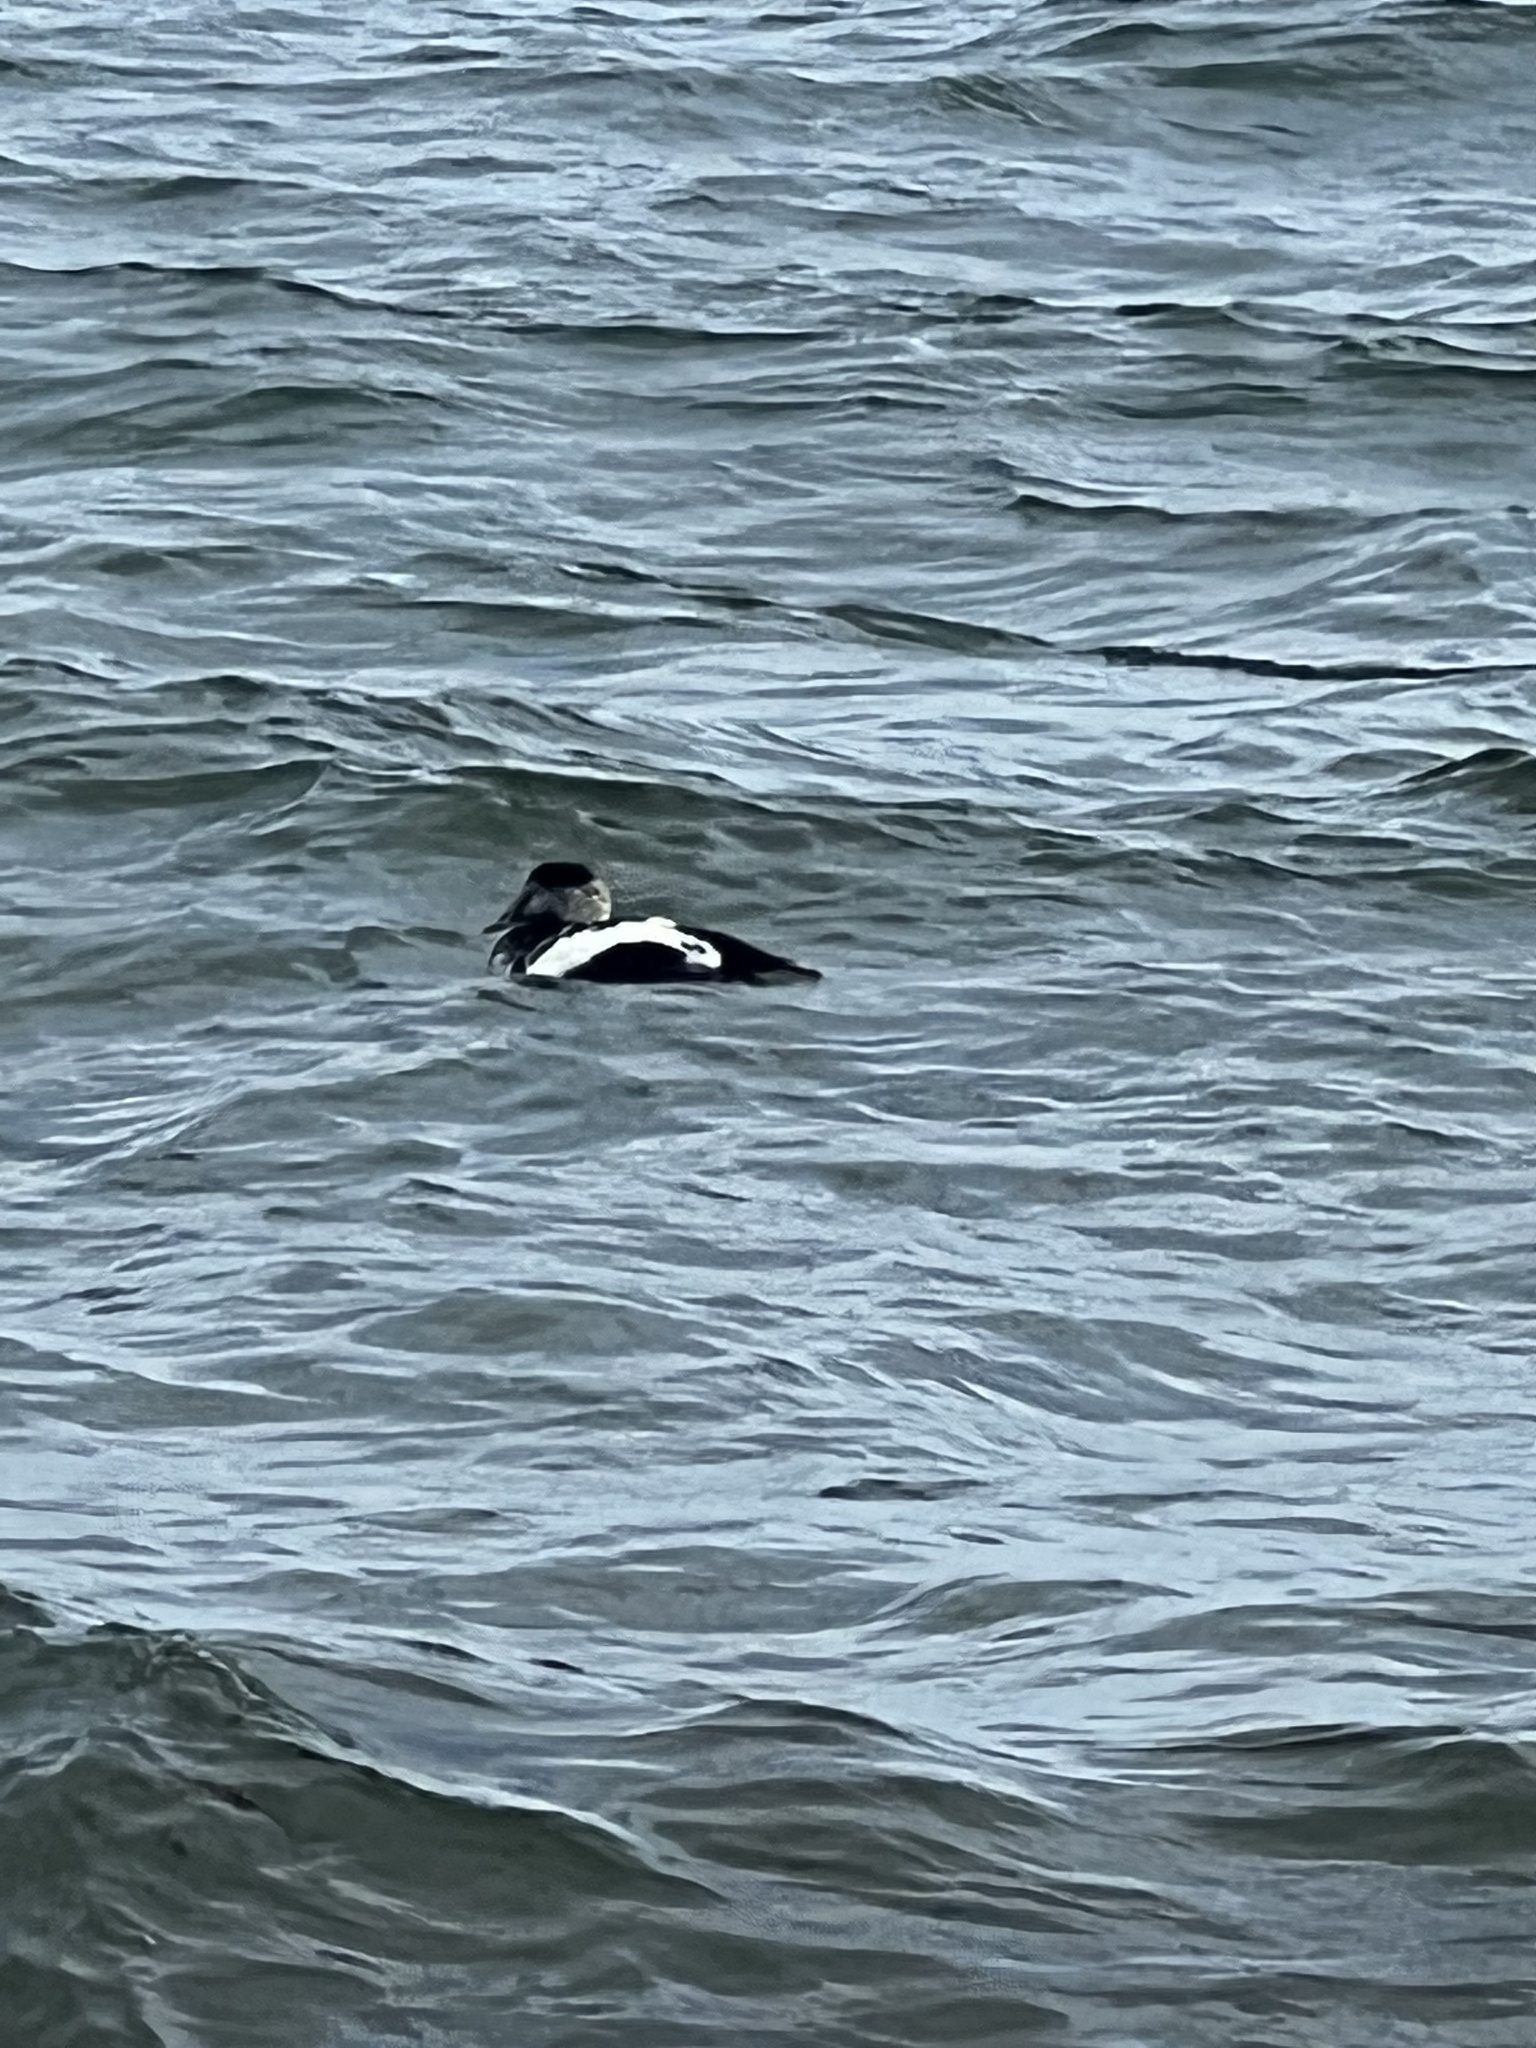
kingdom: Animalia
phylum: Chordata
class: Aves
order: Anseriformes
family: Anatidae
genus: Somateria
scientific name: Somateria mollissima
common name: Common eider
